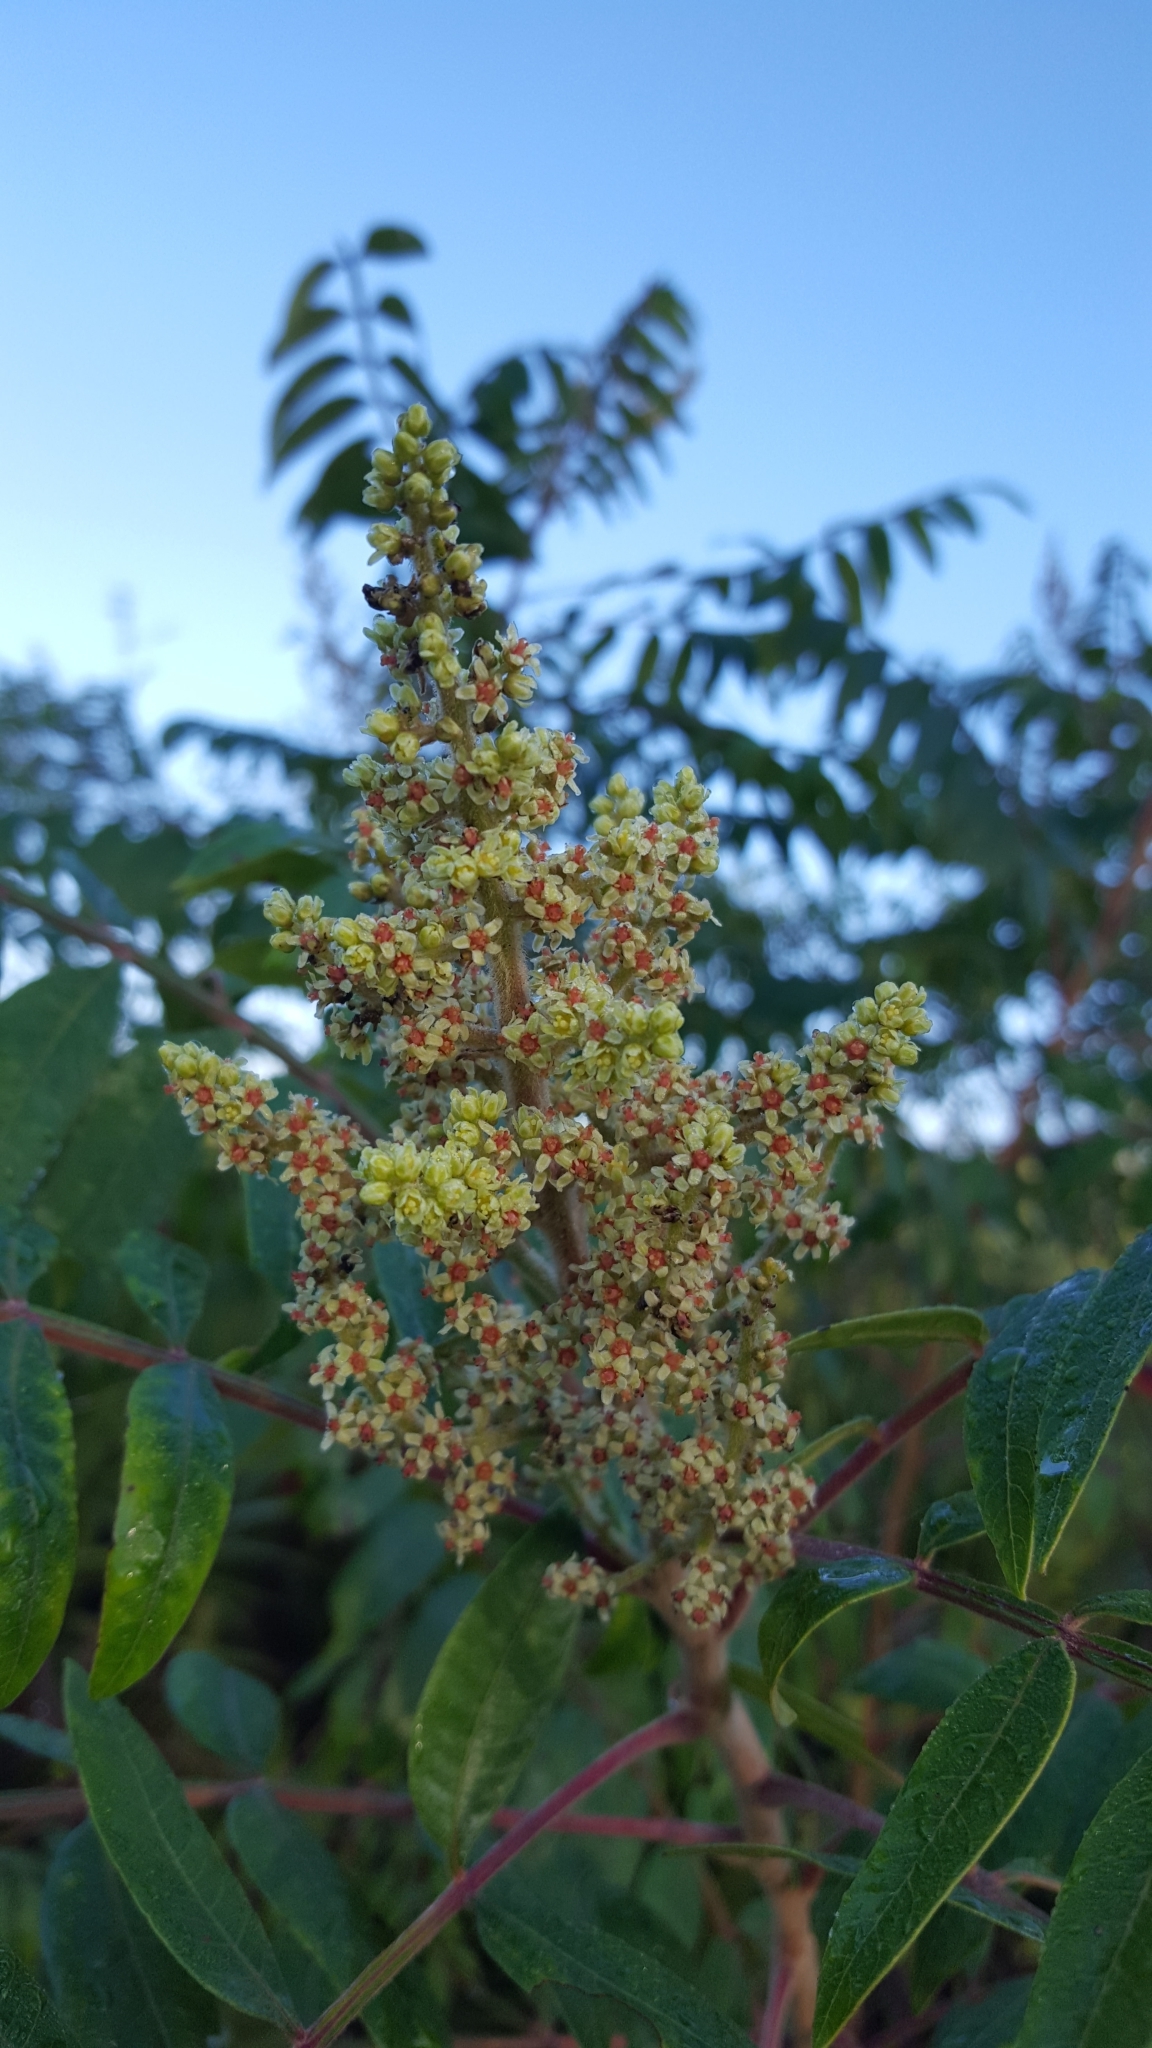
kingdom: Plantae
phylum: Tracheophyta
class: Magnoliopsida
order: Sapindales
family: Anacardiaceae
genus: Rhus
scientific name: Rhus copallina
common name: Shining sumac
